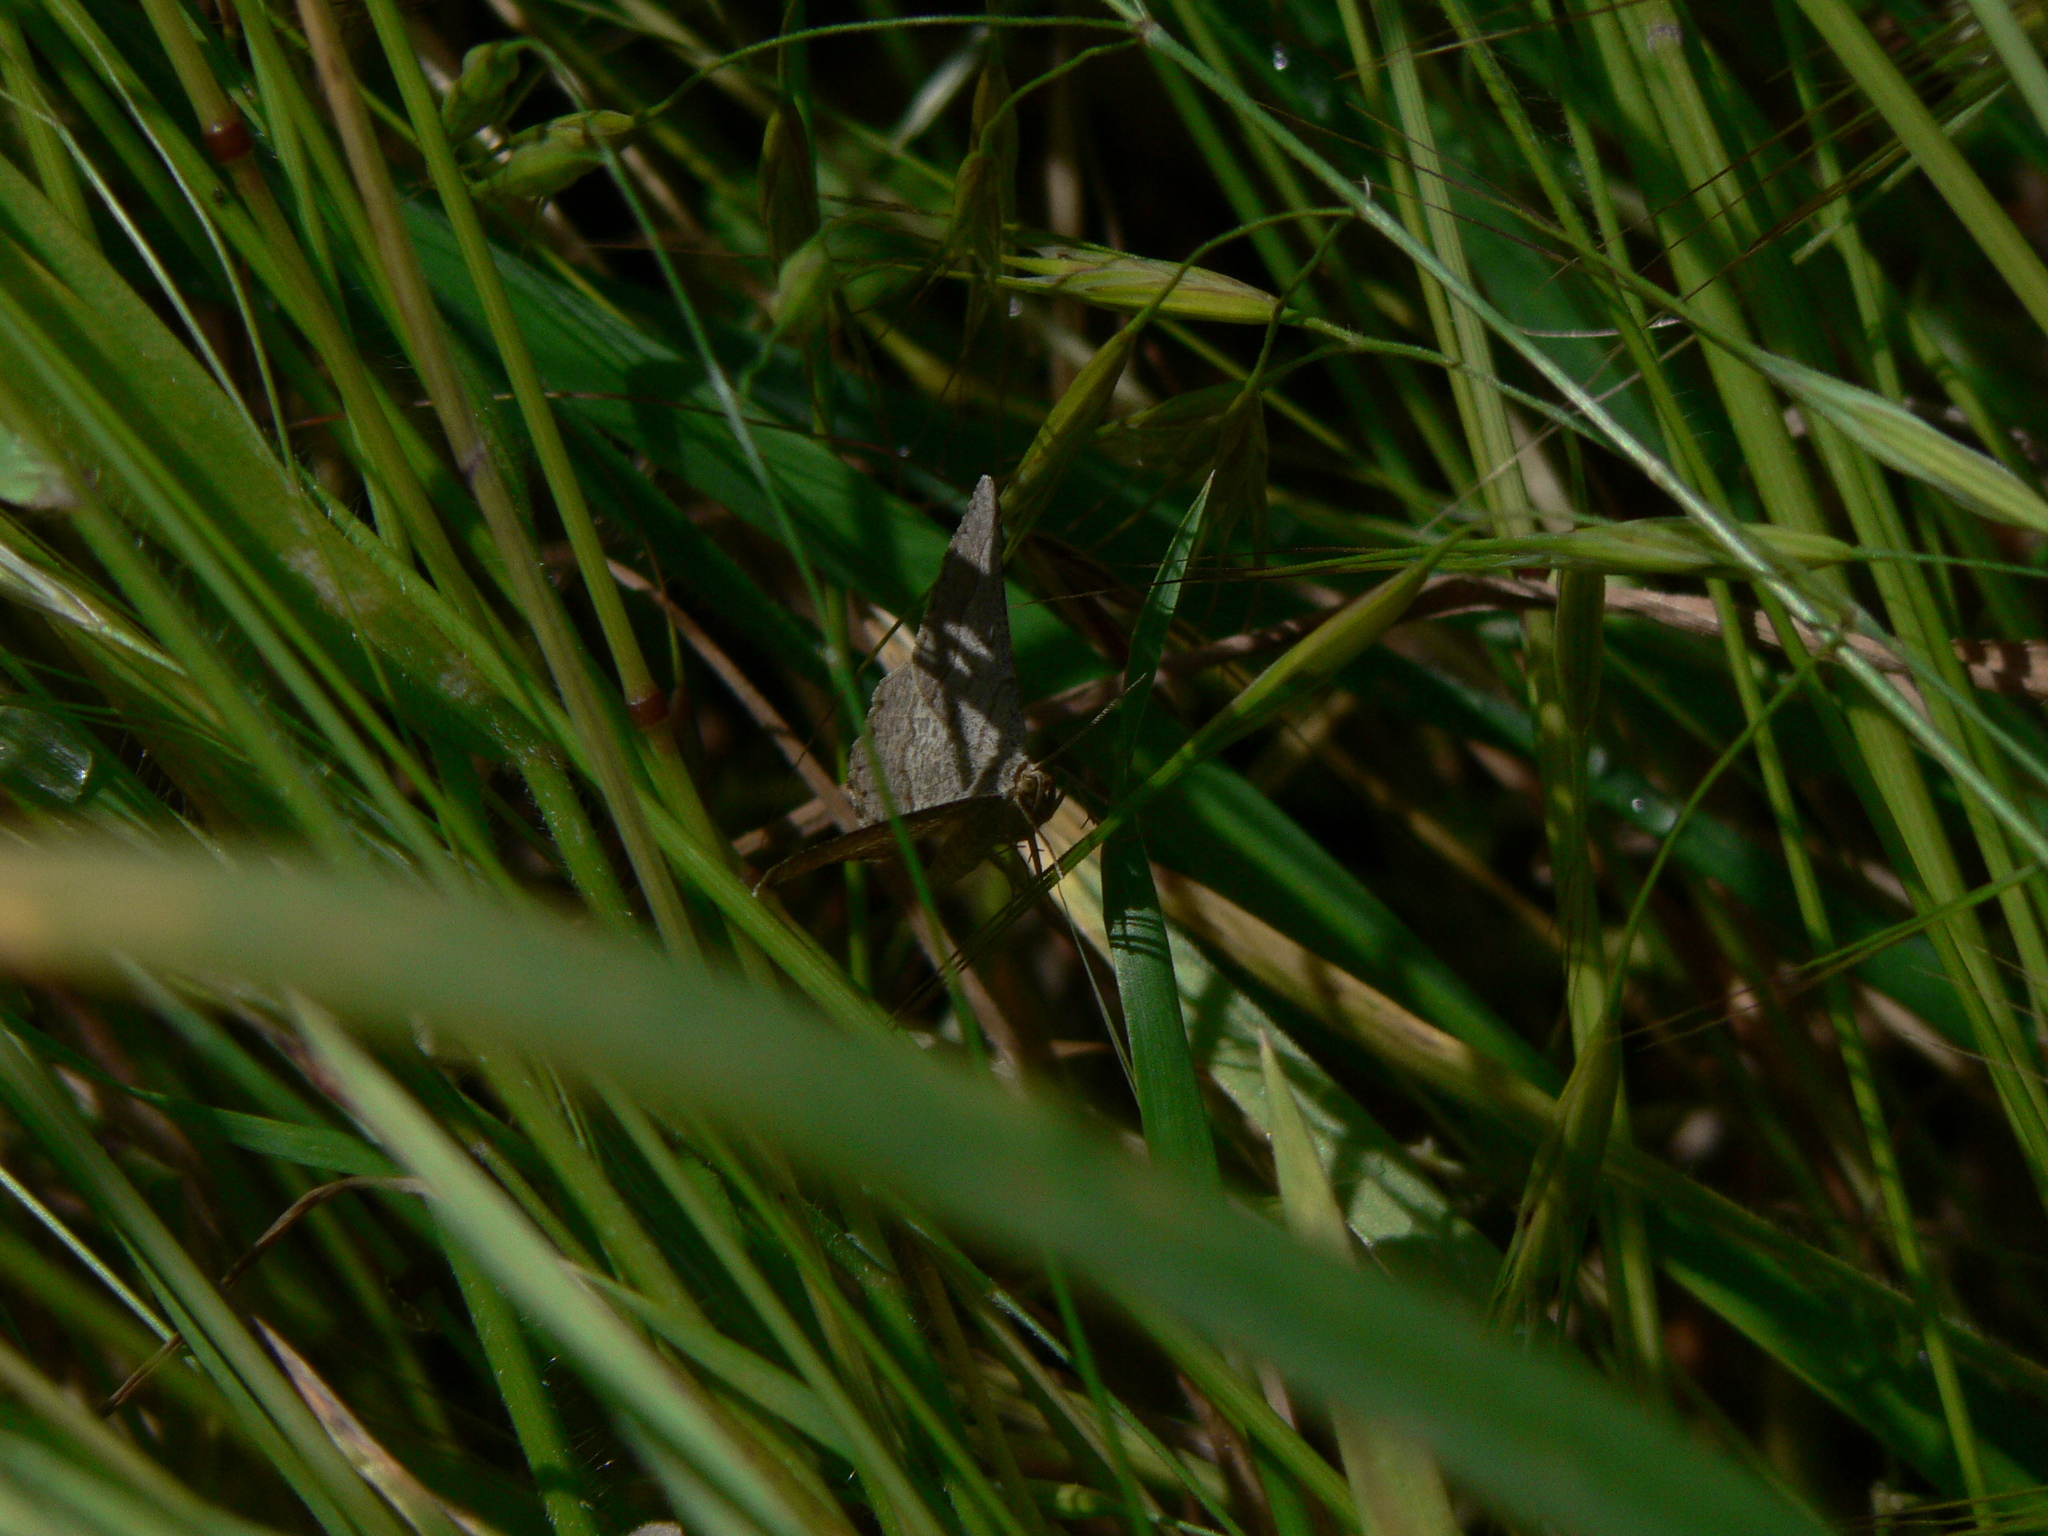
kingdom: Animalia
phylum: Arthropoda
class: Insecta
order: Lepidoptera
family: Geometridae
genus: Tephrina
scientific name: Tephrina murinaria
